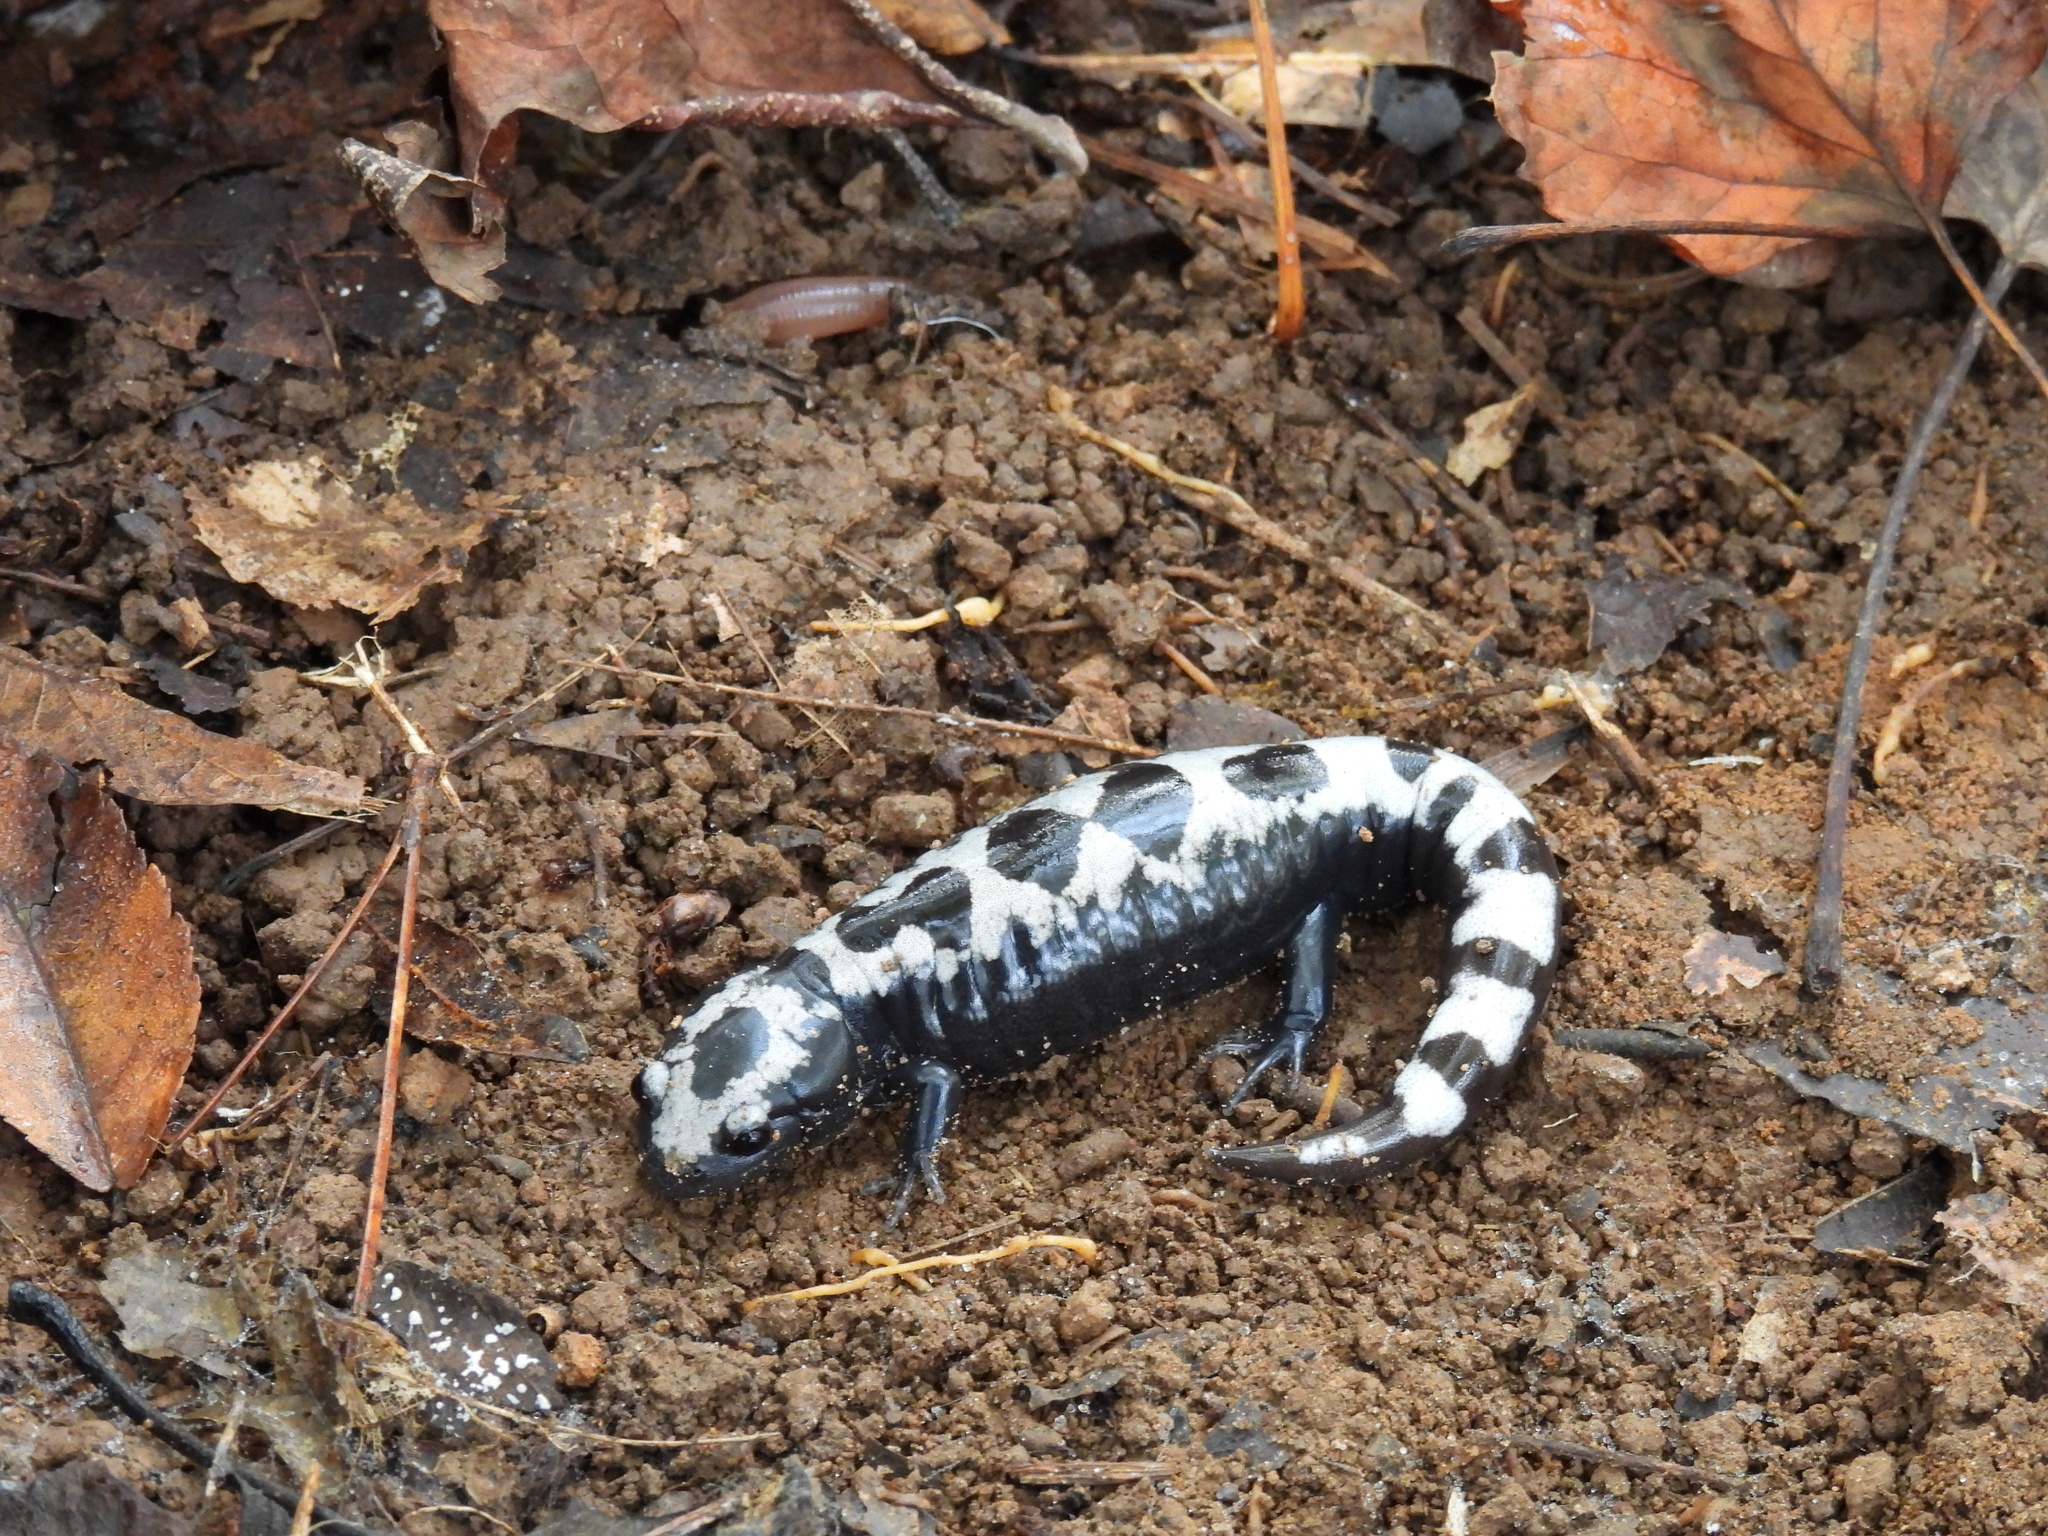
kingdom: Animalia
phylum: Chordata
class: Amphibia
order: Caudata
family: Ambystomatidae
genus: Ambystoma
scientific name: Ambystoma opacum
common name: Marbled salamander
